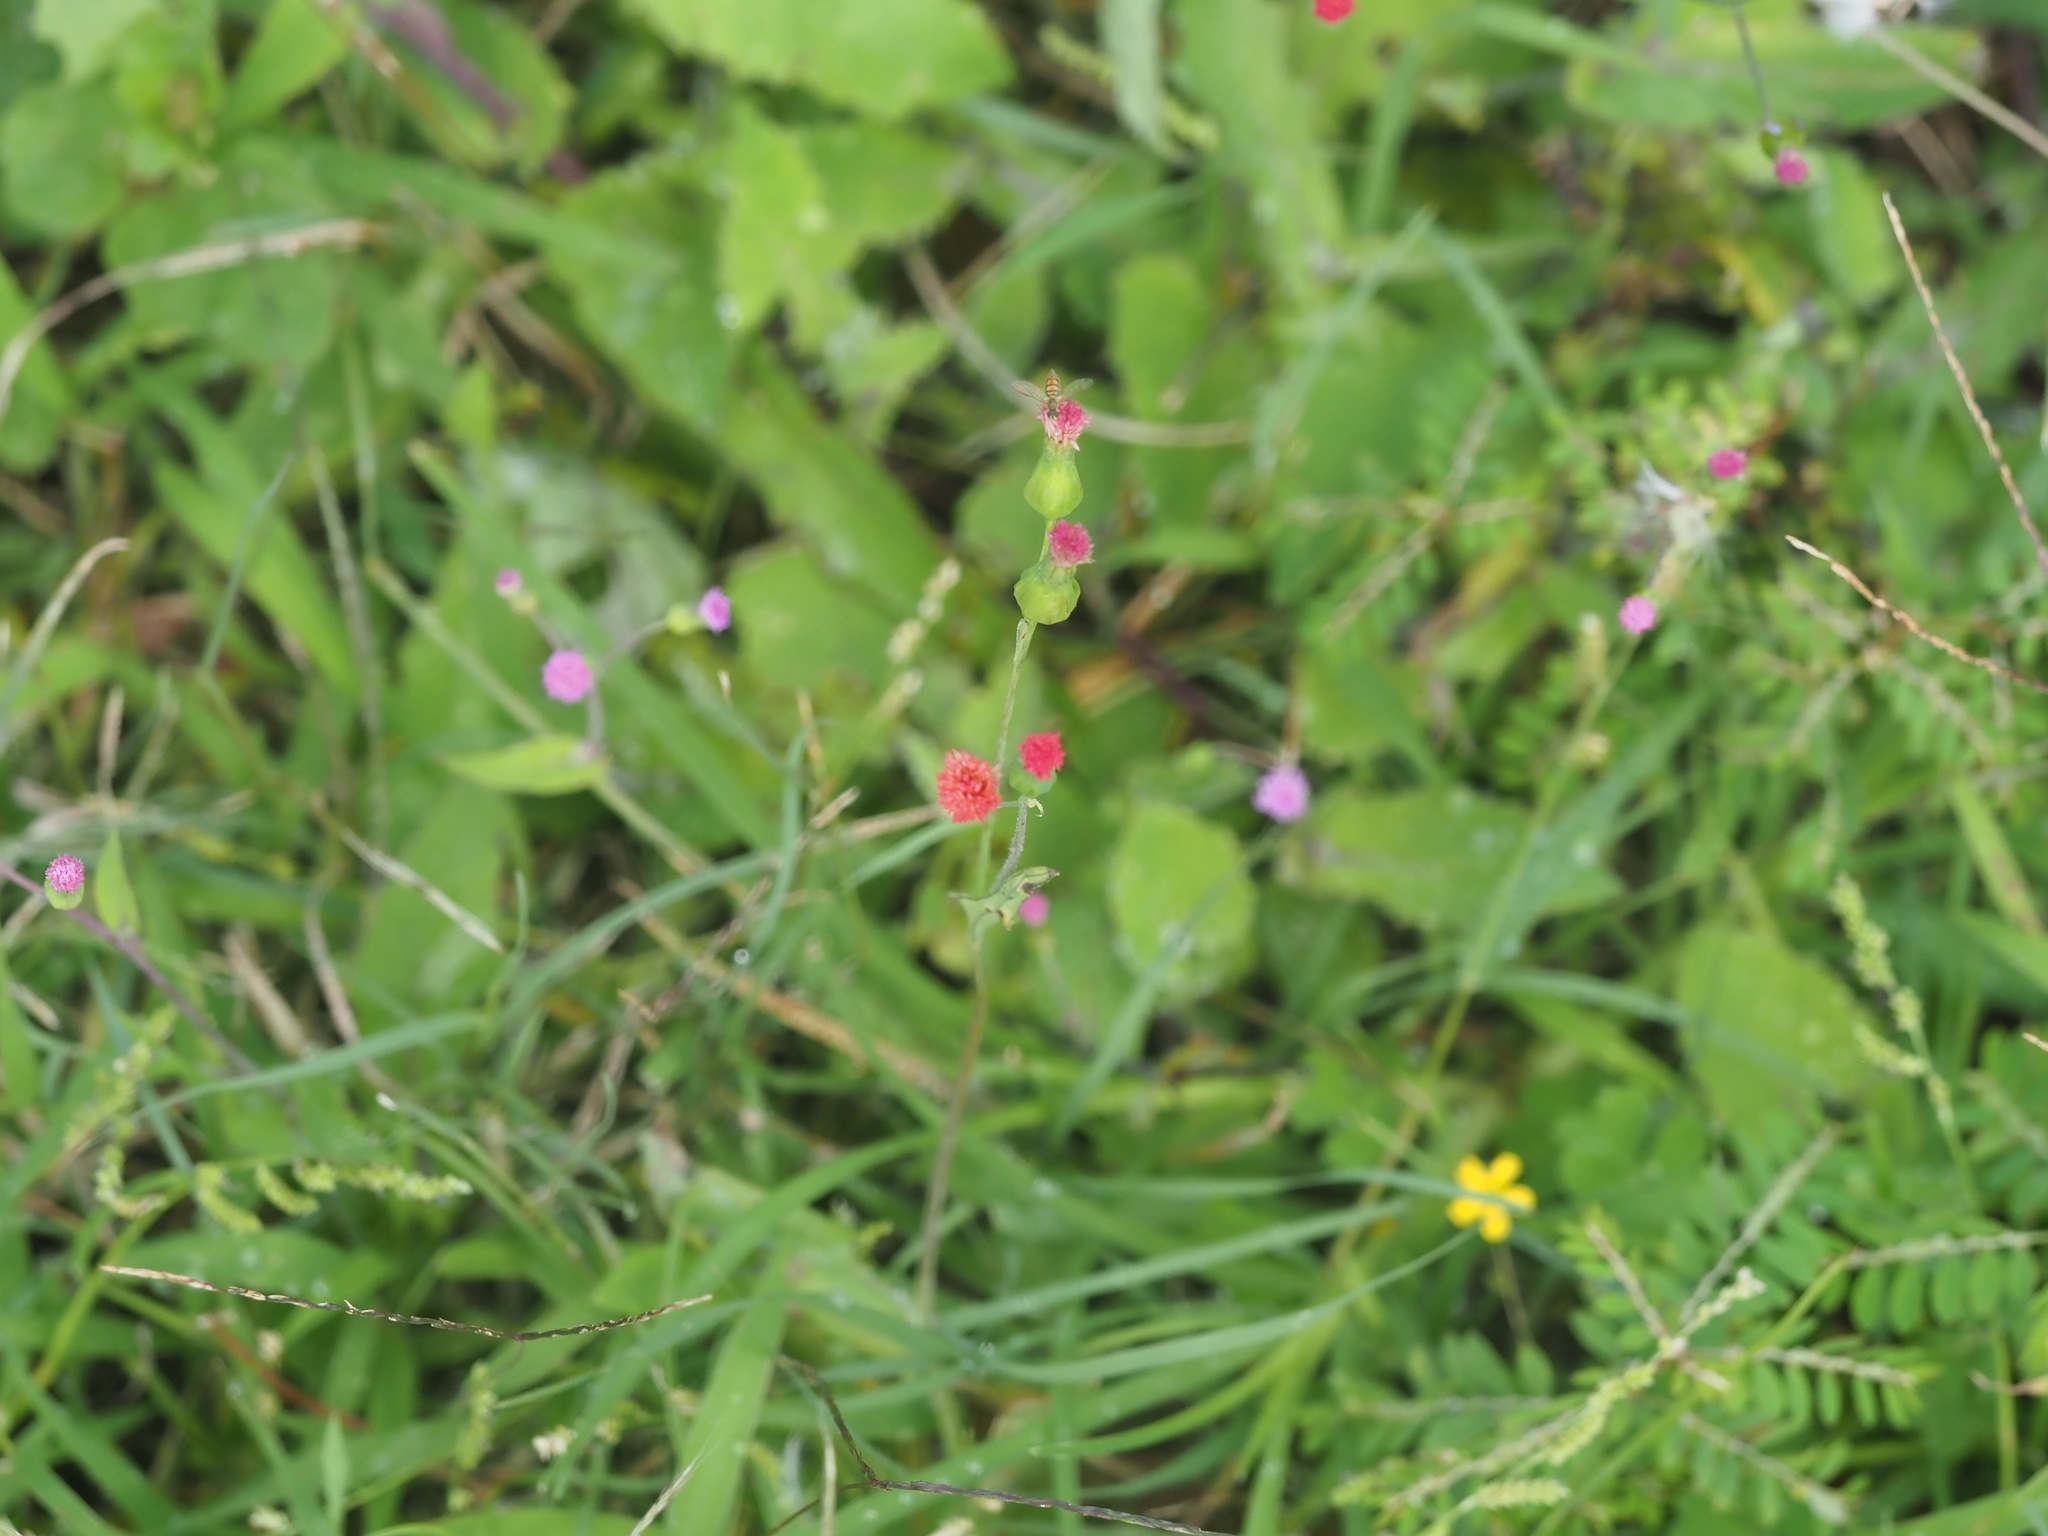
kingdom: Plantae
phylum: Tracheophyta
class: Magnoliopsida
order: Asterales
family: Asteraceae
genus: Emilia
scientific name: Emilia fosbergii
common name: Florida tasselflower
